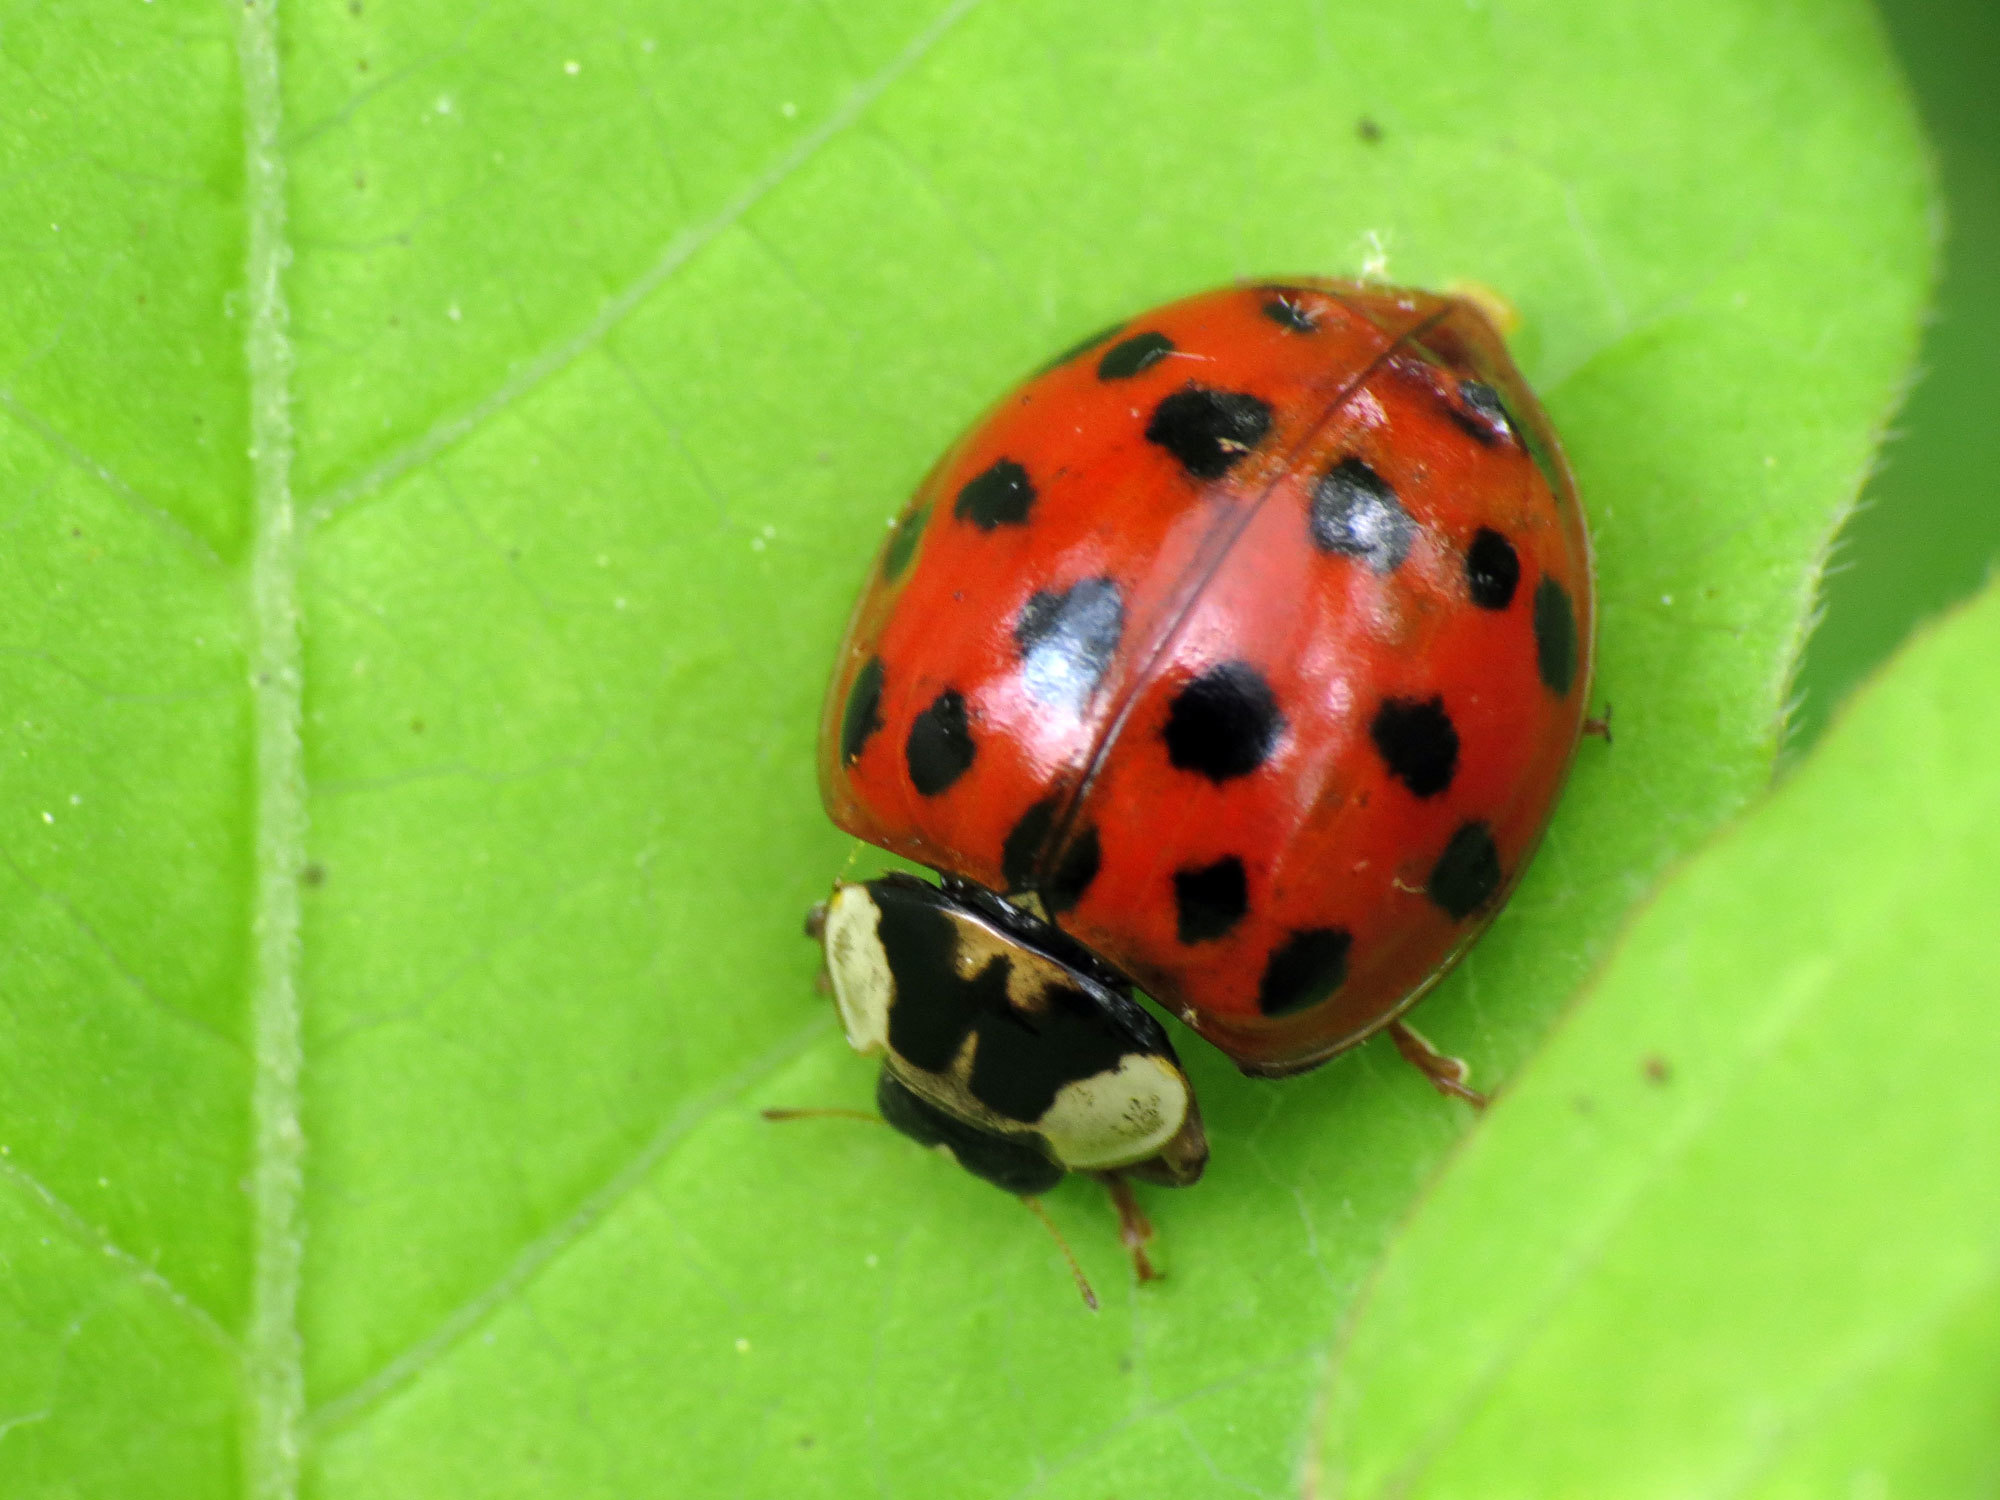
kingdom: Animalia
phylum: Arthropoda
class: Insecta
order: Coleoptera
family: Coccinellidae
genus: Harmonia
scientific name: Harmonia axyridis
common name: Harlequin ladybird
